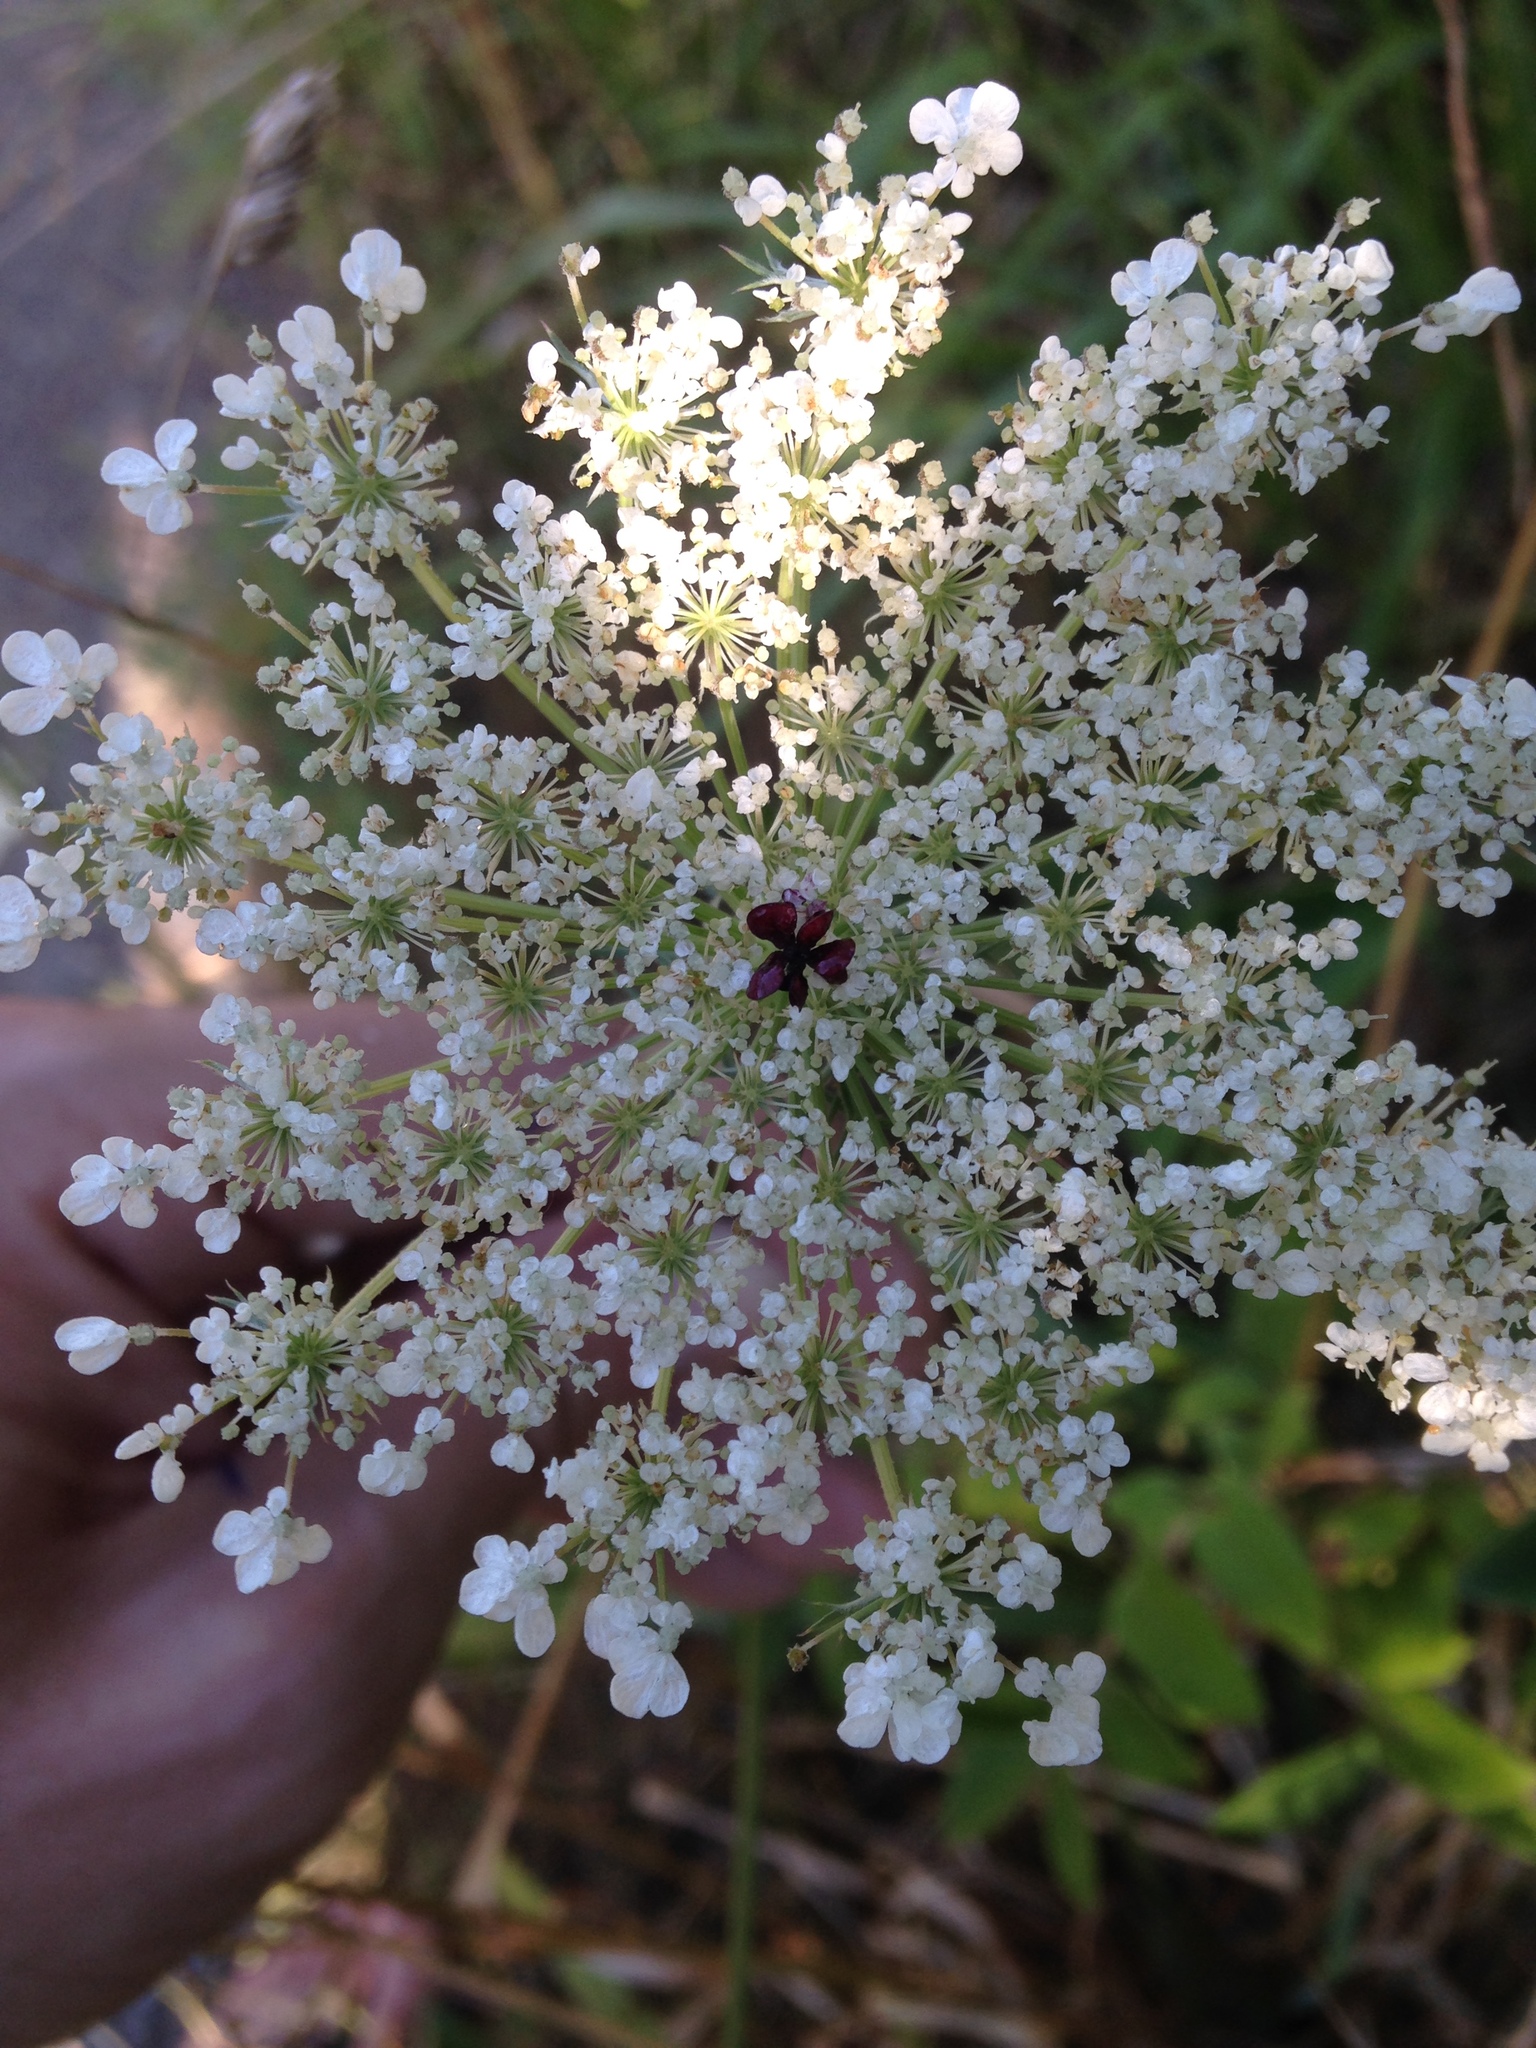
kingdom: Plantae
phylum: Tracheophyta
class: Magnoliopsida
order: Apiales
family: Apiaceae
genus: Daucus
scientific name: Daucus carota
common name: Wild carrot
